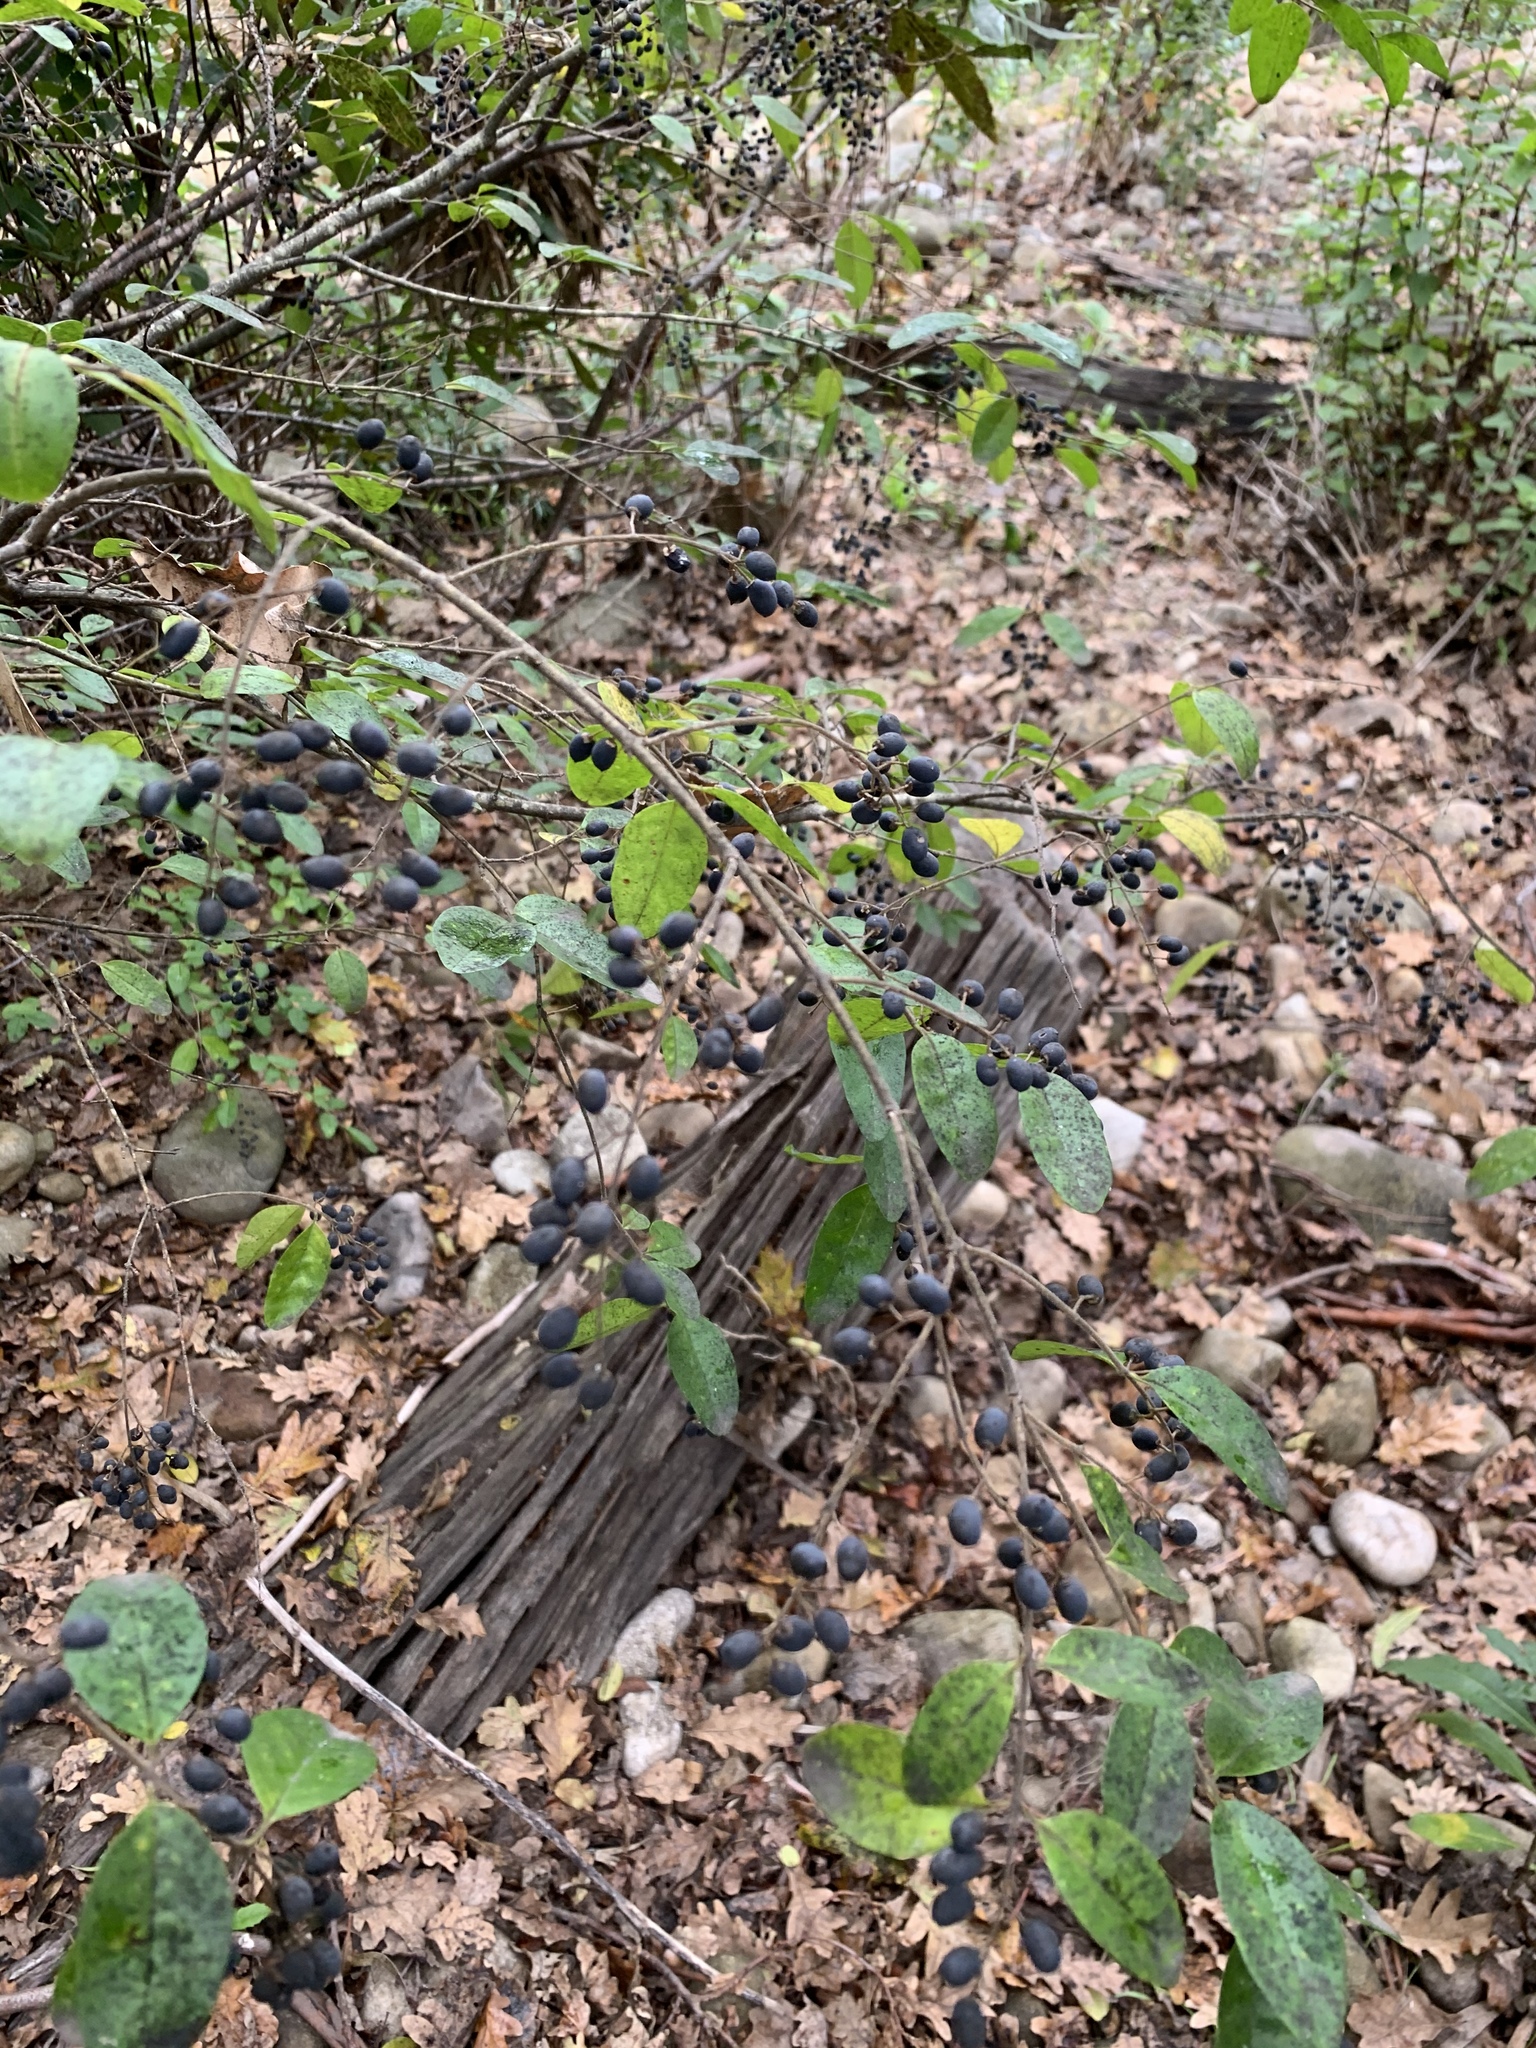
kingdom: Plantae
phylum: Tracheophyta
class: Magnoliopsida
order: Lamiales
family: Oleaceae
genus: Ligustrum
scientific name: Ligustrum sinense
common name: Chinese privet
